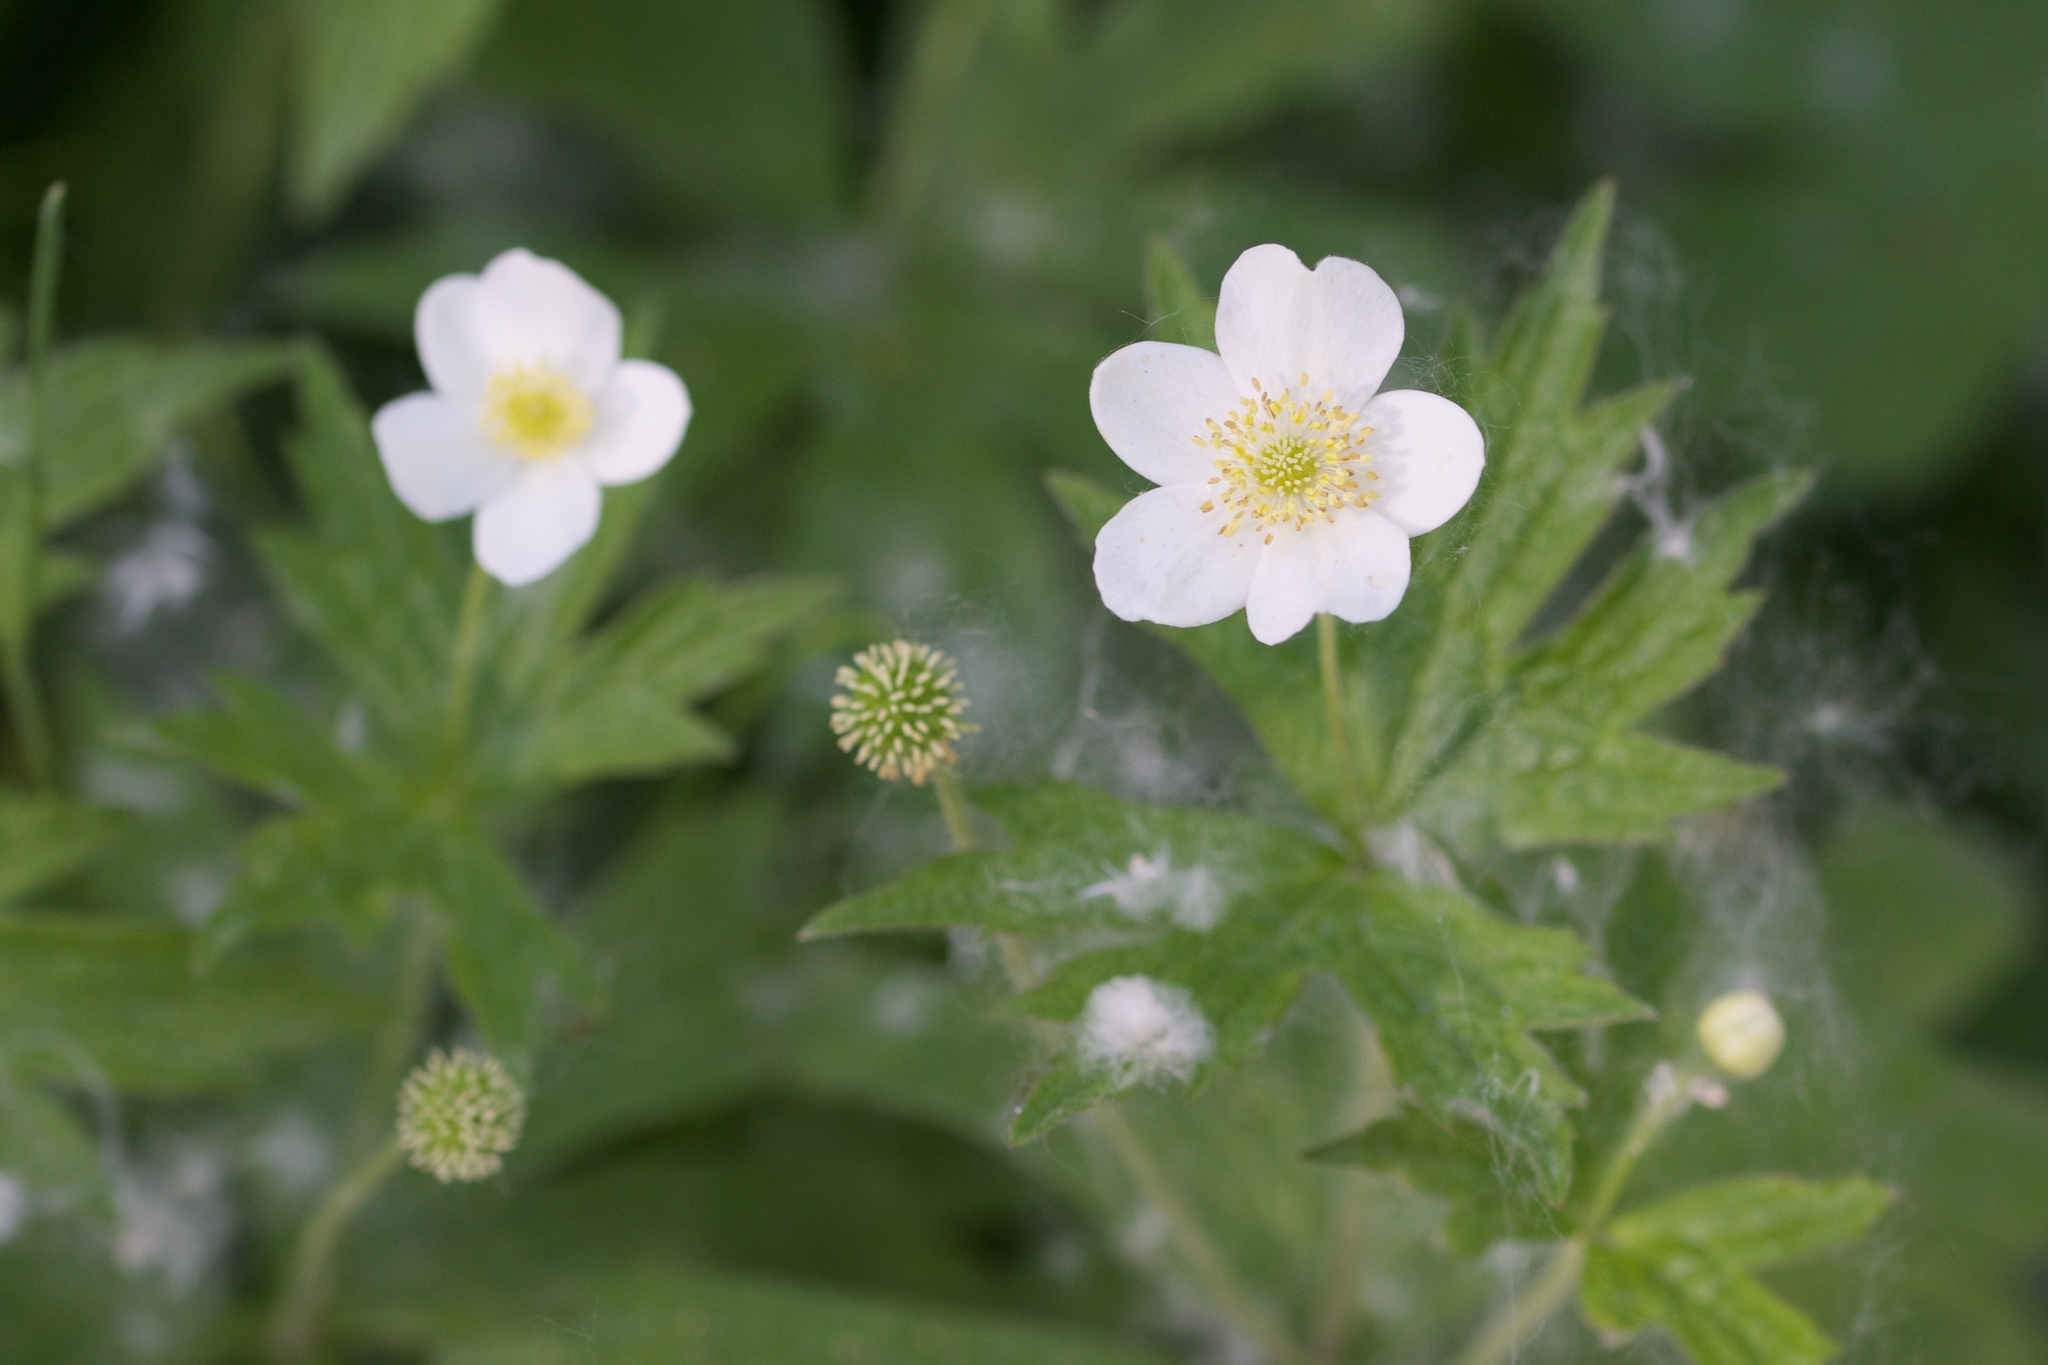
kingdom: Plantae
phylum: Tracheophyta
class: Magnoliopsida
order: Ranunculales
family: Ranunculaceae
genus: Anemonastrum
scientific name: Anemonastrum canadense
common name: Canada anemone
